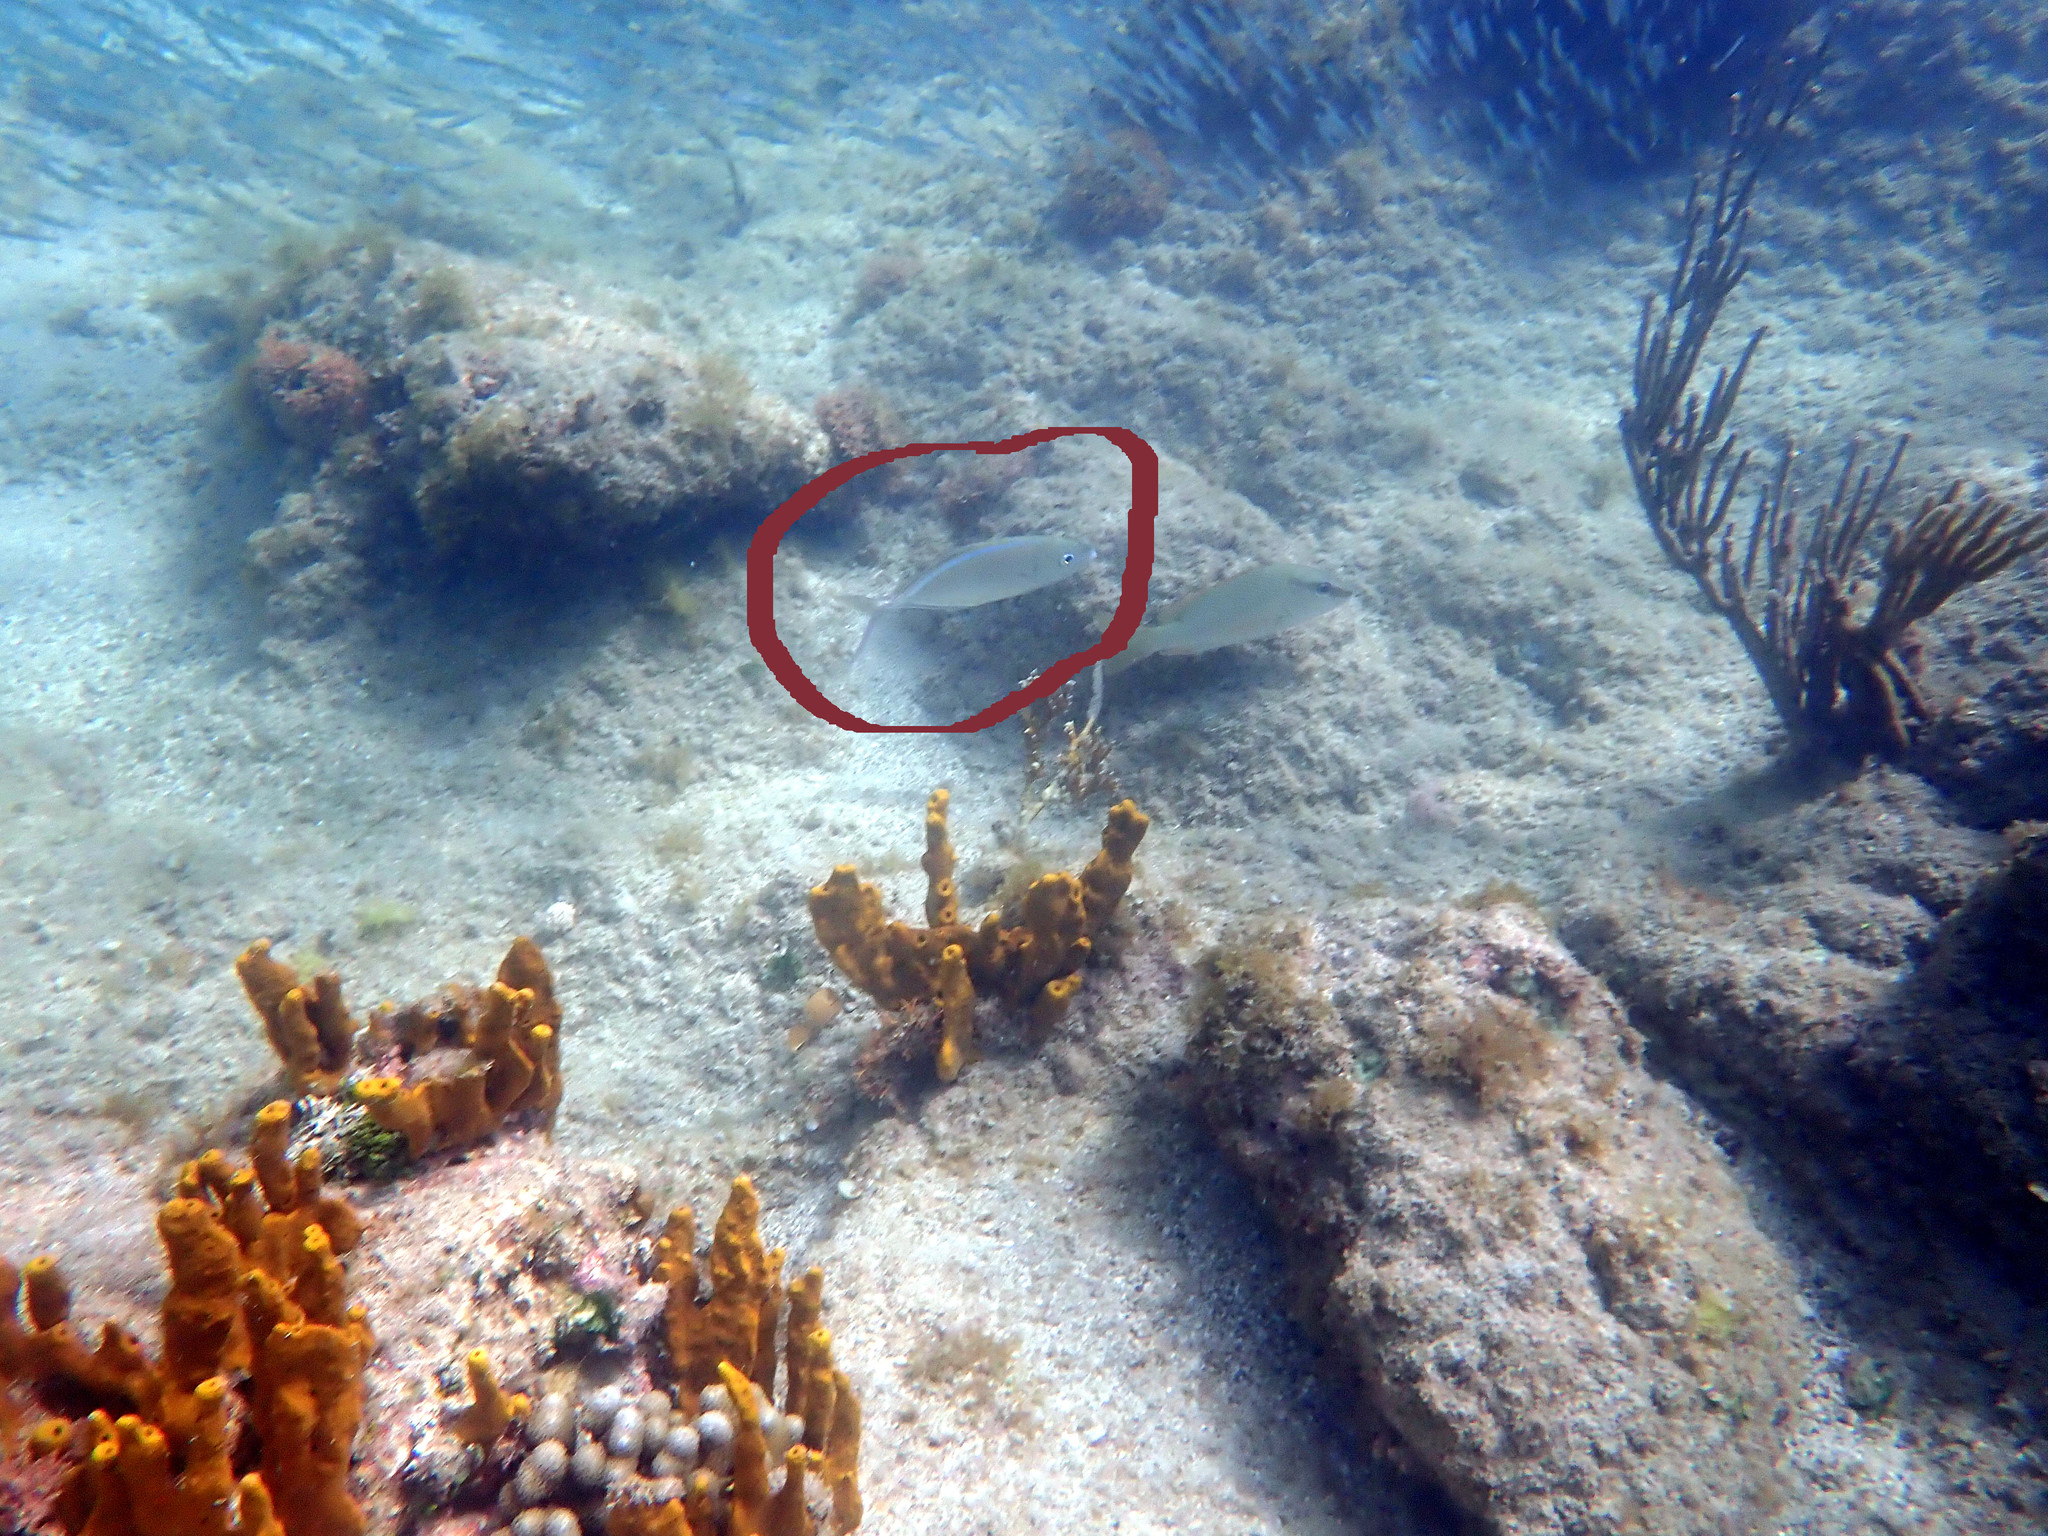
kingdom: Animalia
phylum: Chordata
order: Perciformes
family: Carangidae
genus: Caranx
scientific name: Caranx ruber
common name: Bar jack
